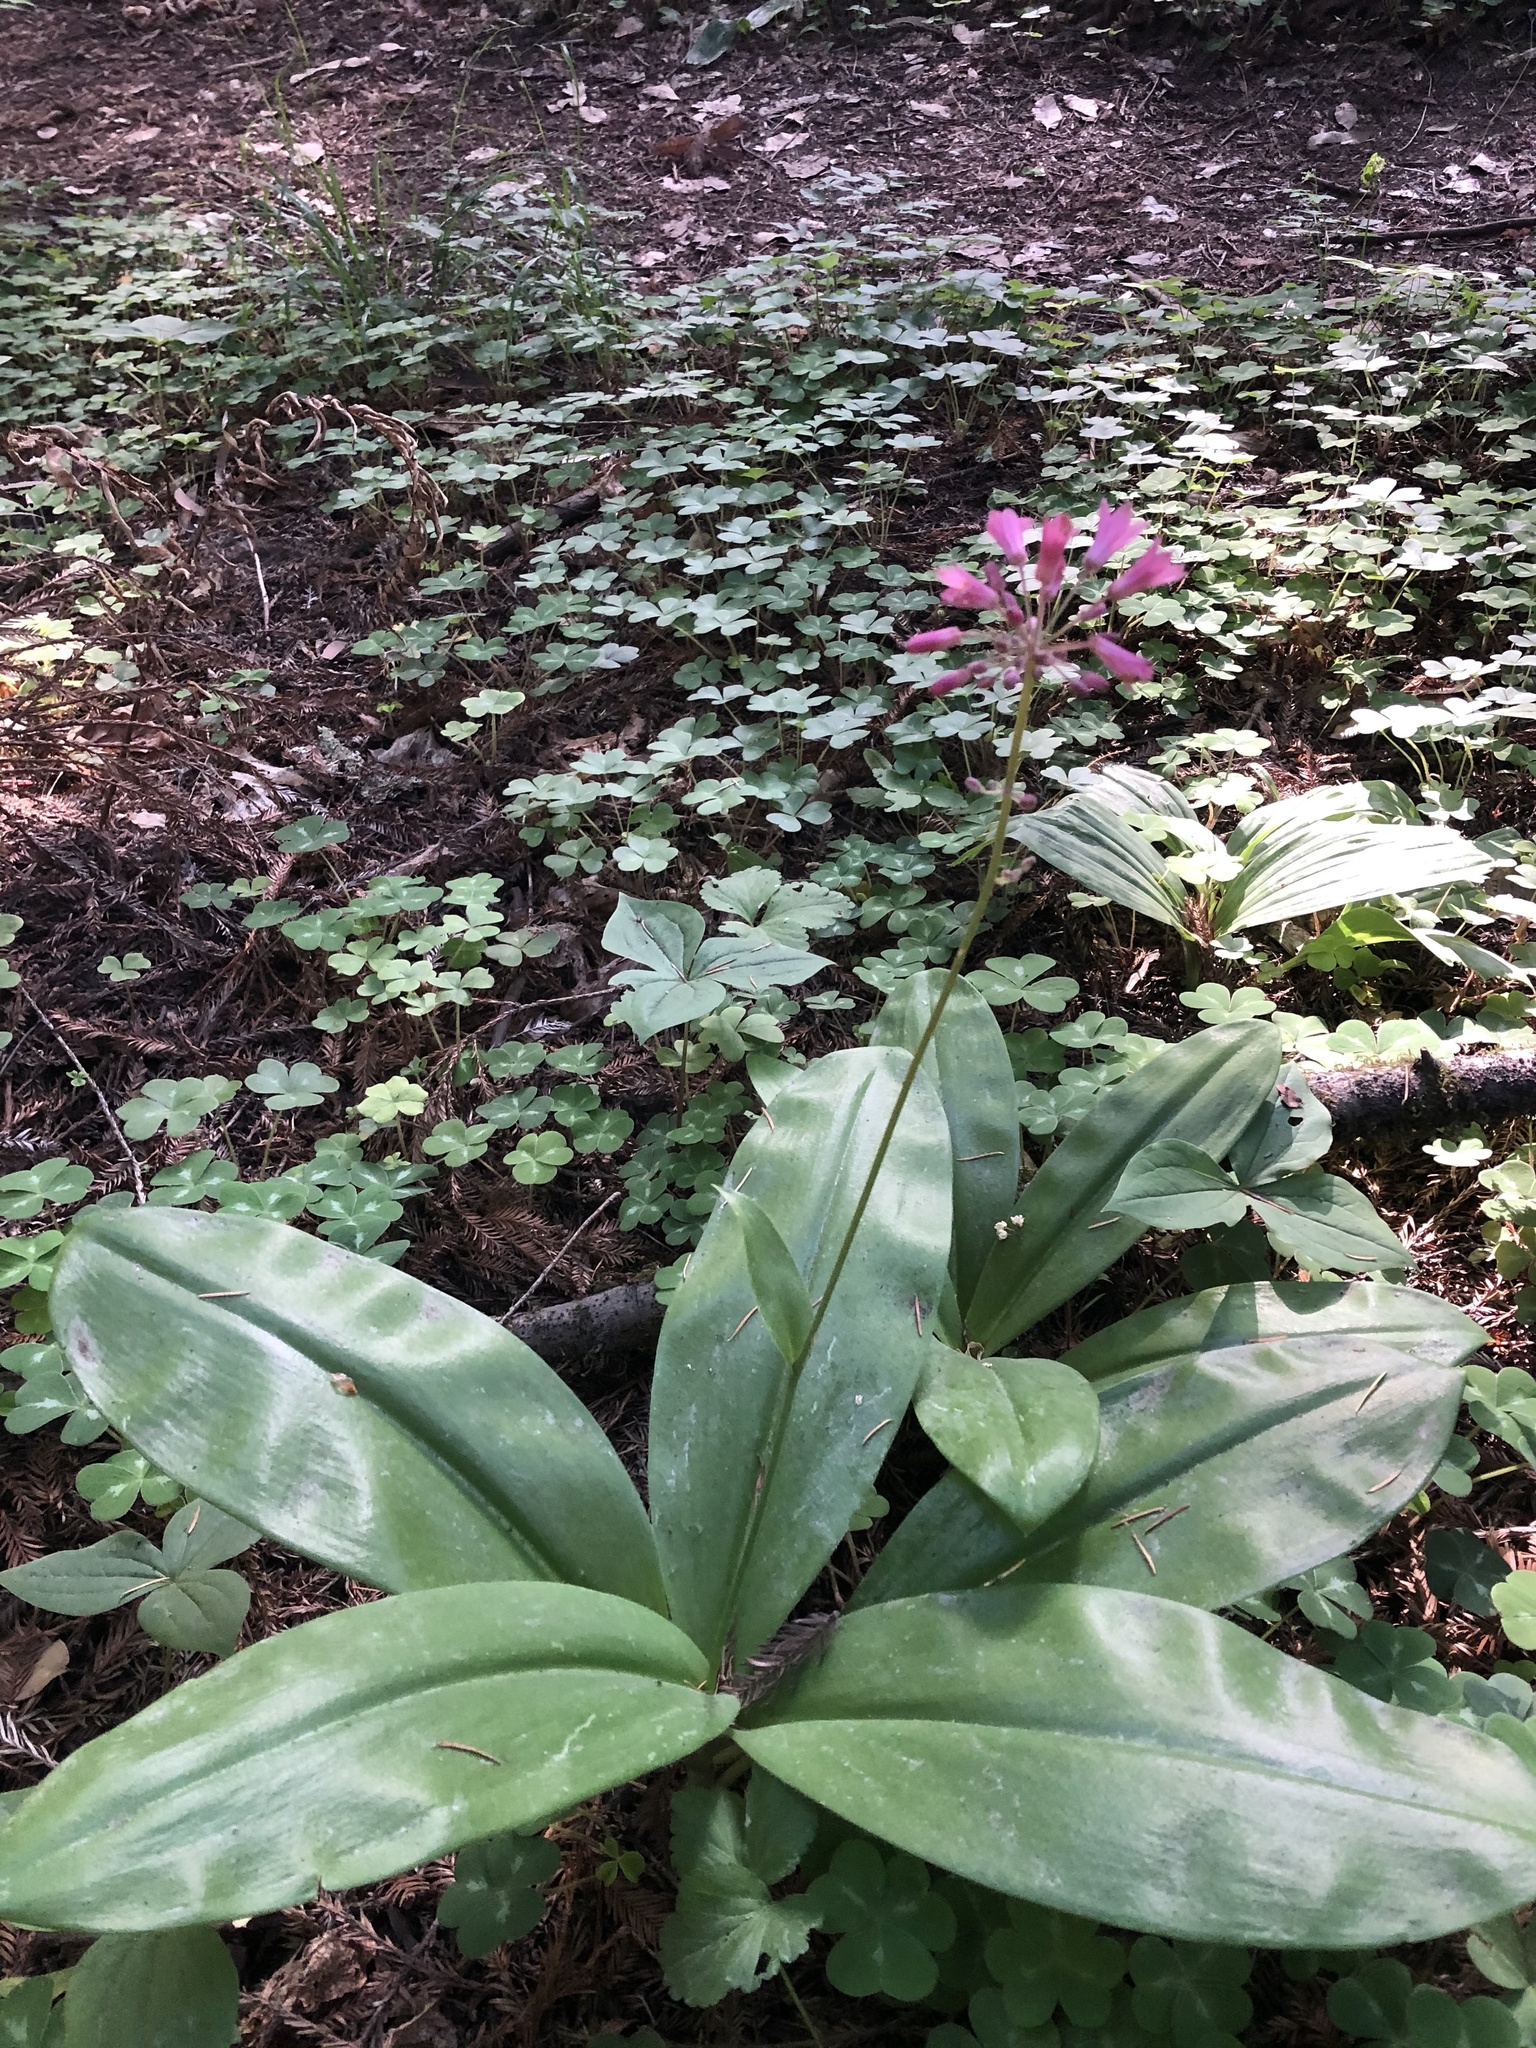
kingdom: Plantae
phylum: Tracheophyta
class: Liliopsida
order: Liliales
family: Liliaceae
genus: Clintonia
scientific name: Clintonia andrewsiana
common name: Red clintonia
